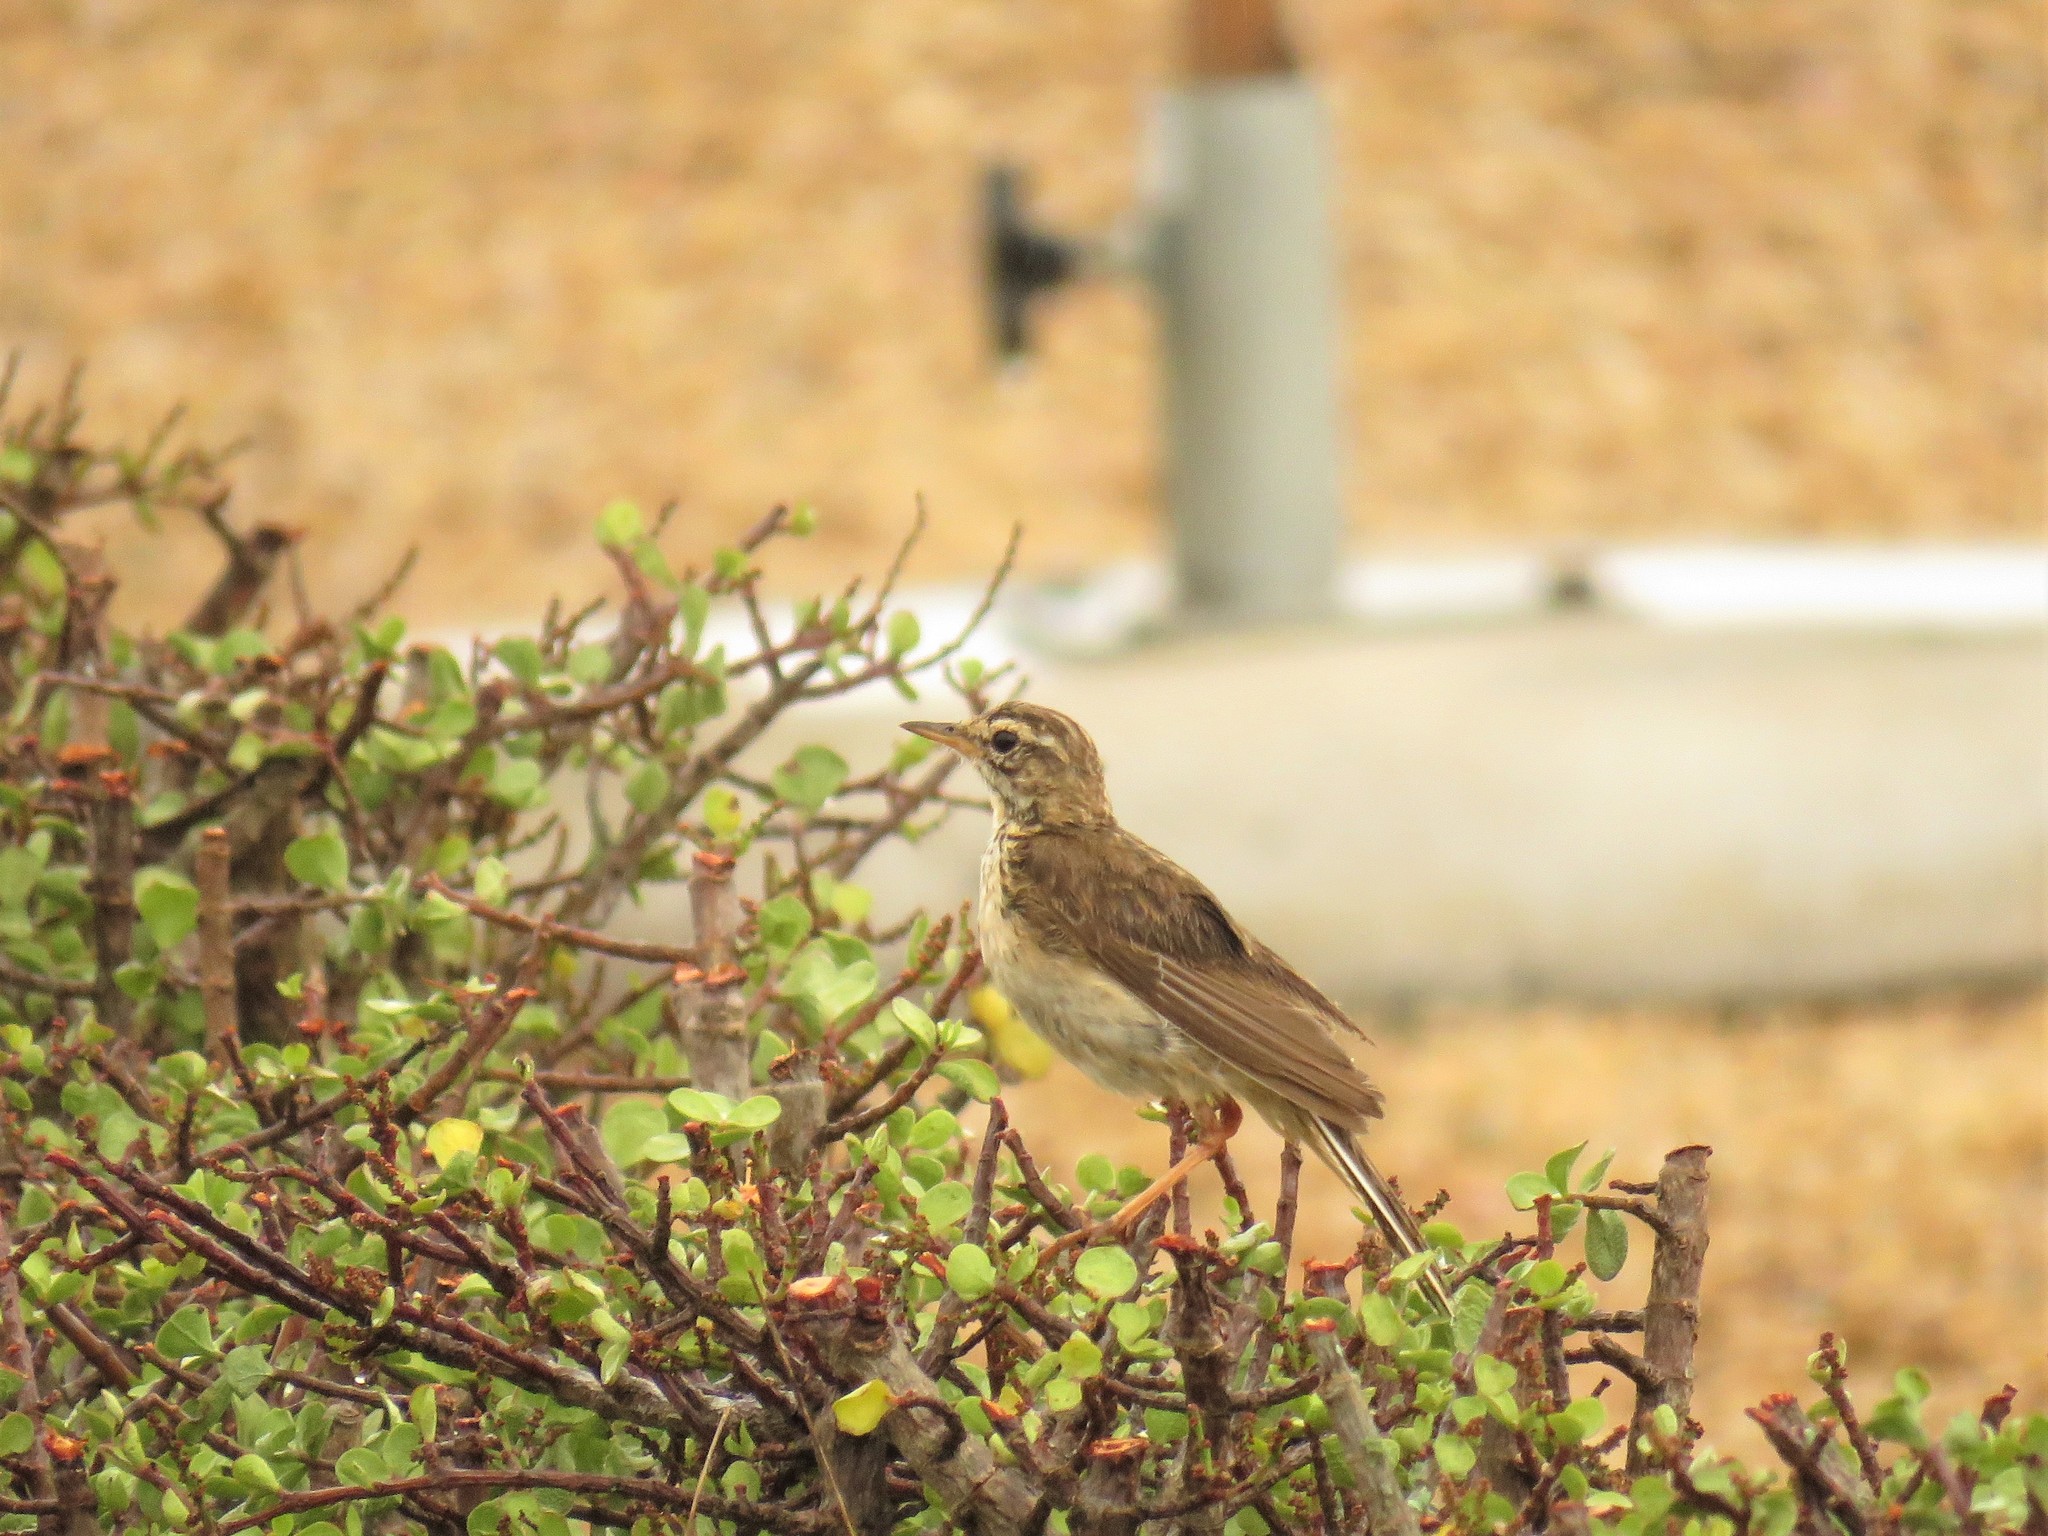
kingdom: Animalia
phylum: Chordata
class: Aves
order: Passeriformes
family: Motacillidae
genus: Anthus
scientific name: Anthus cinnamomeus
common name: African pipit
